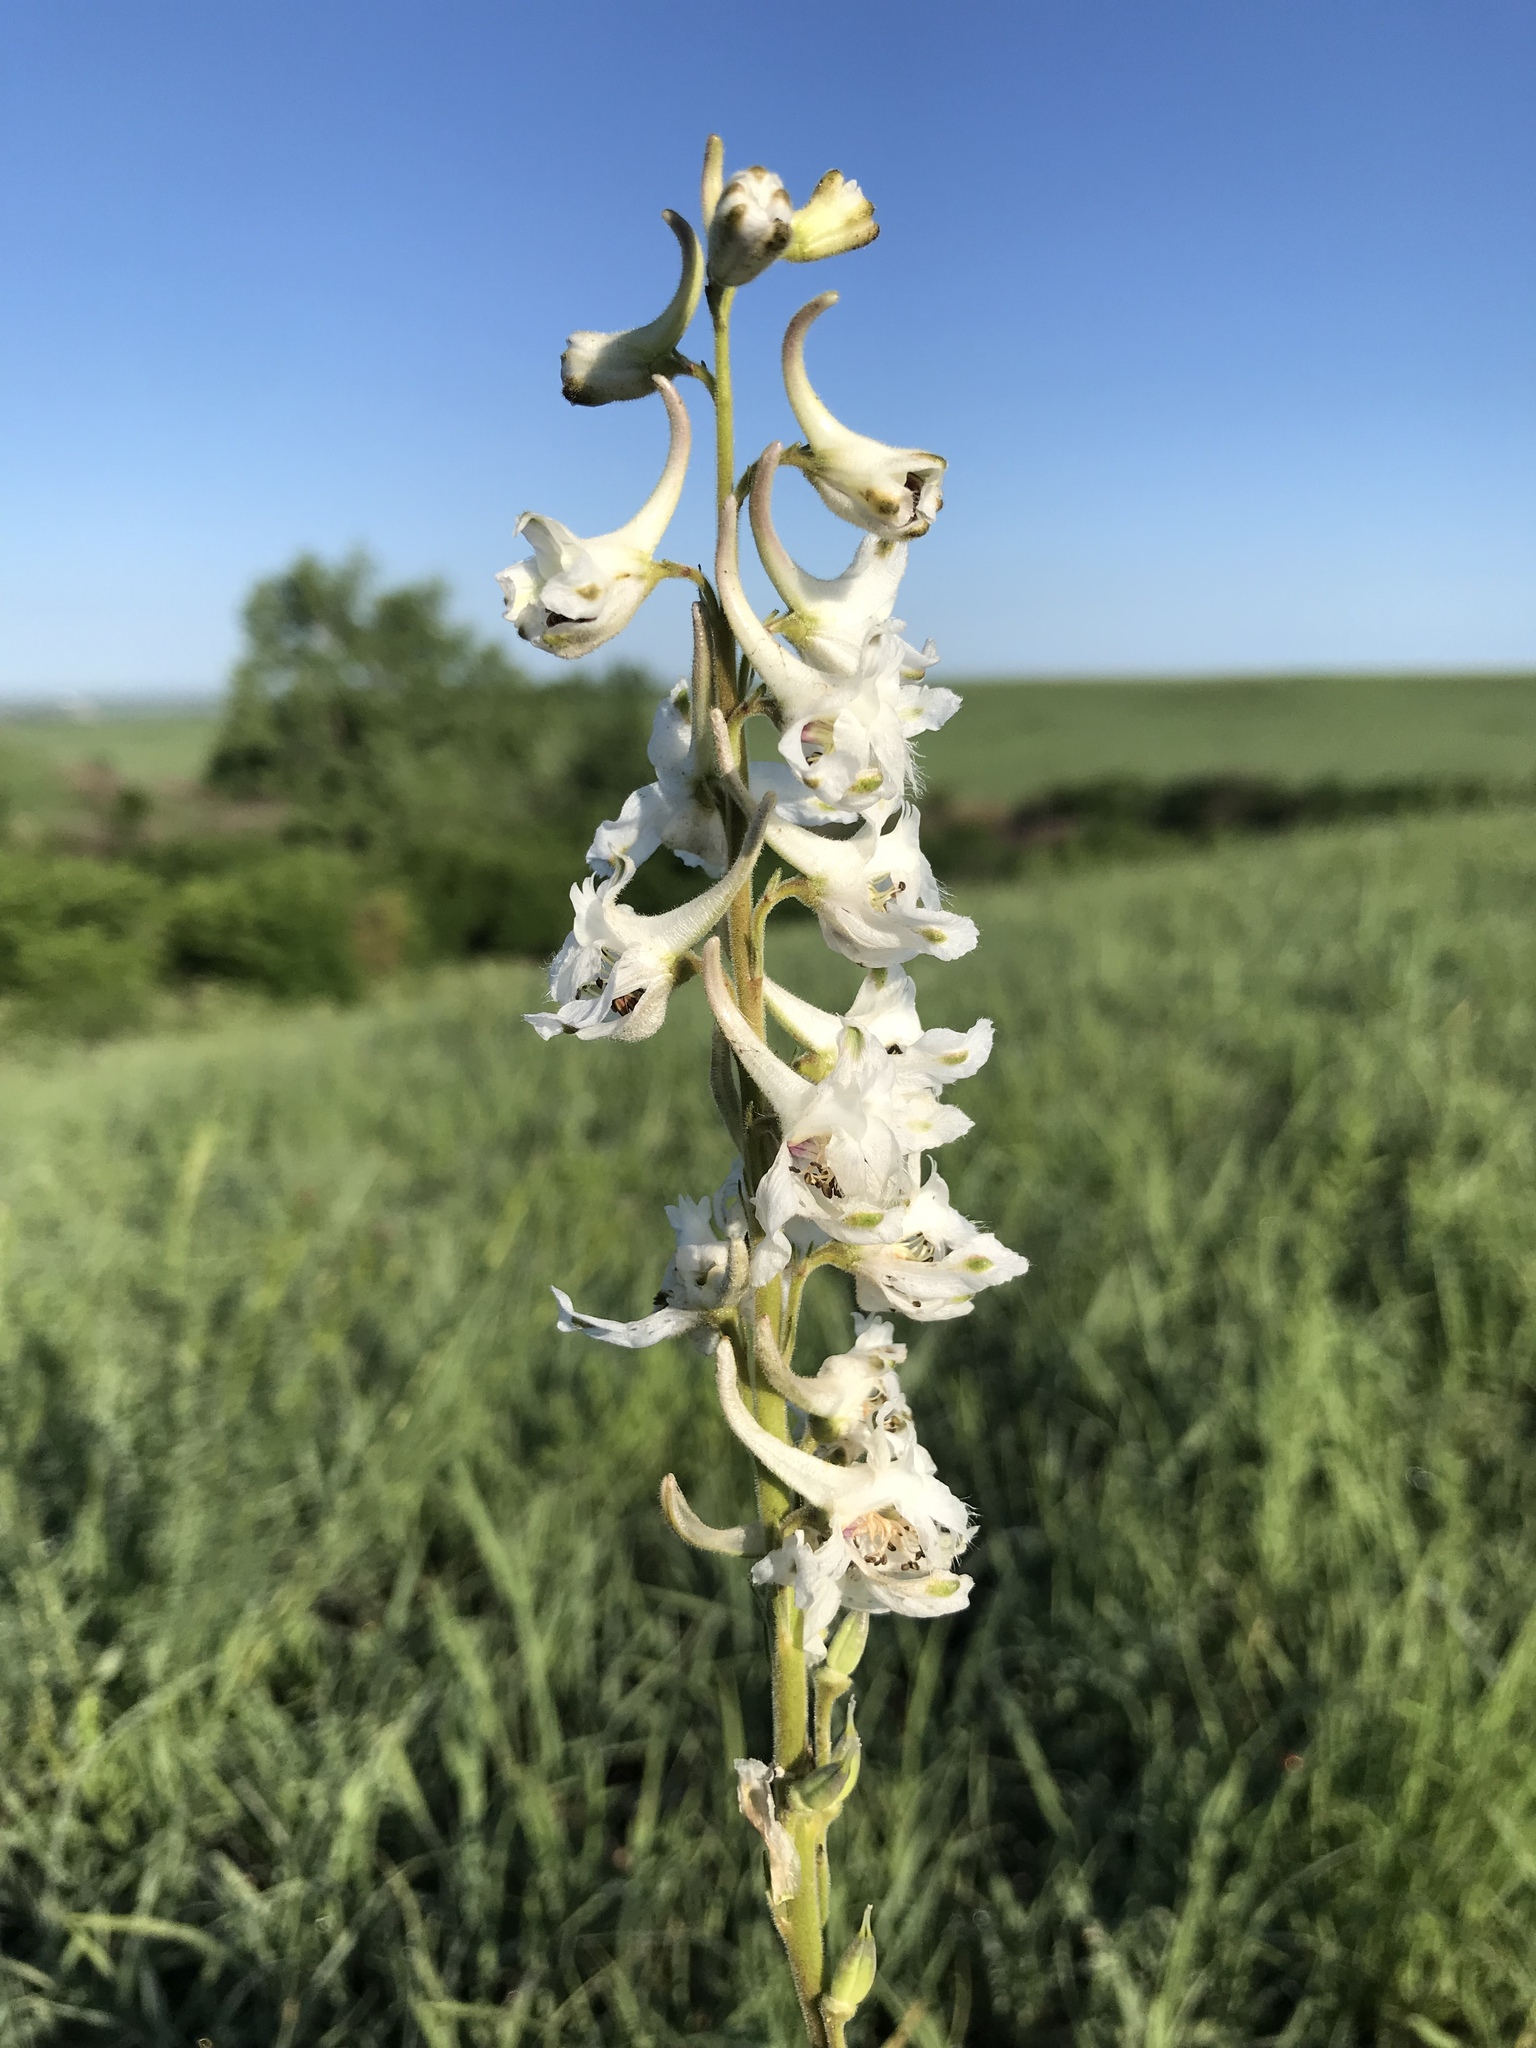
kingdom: Plantae
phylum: Tracheophyta
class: Magnoliopsida
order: Ranunculales
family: Ranunculaceae
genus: Delphinium
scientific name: Delphinium carolinianum
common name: Carolina larkspur
